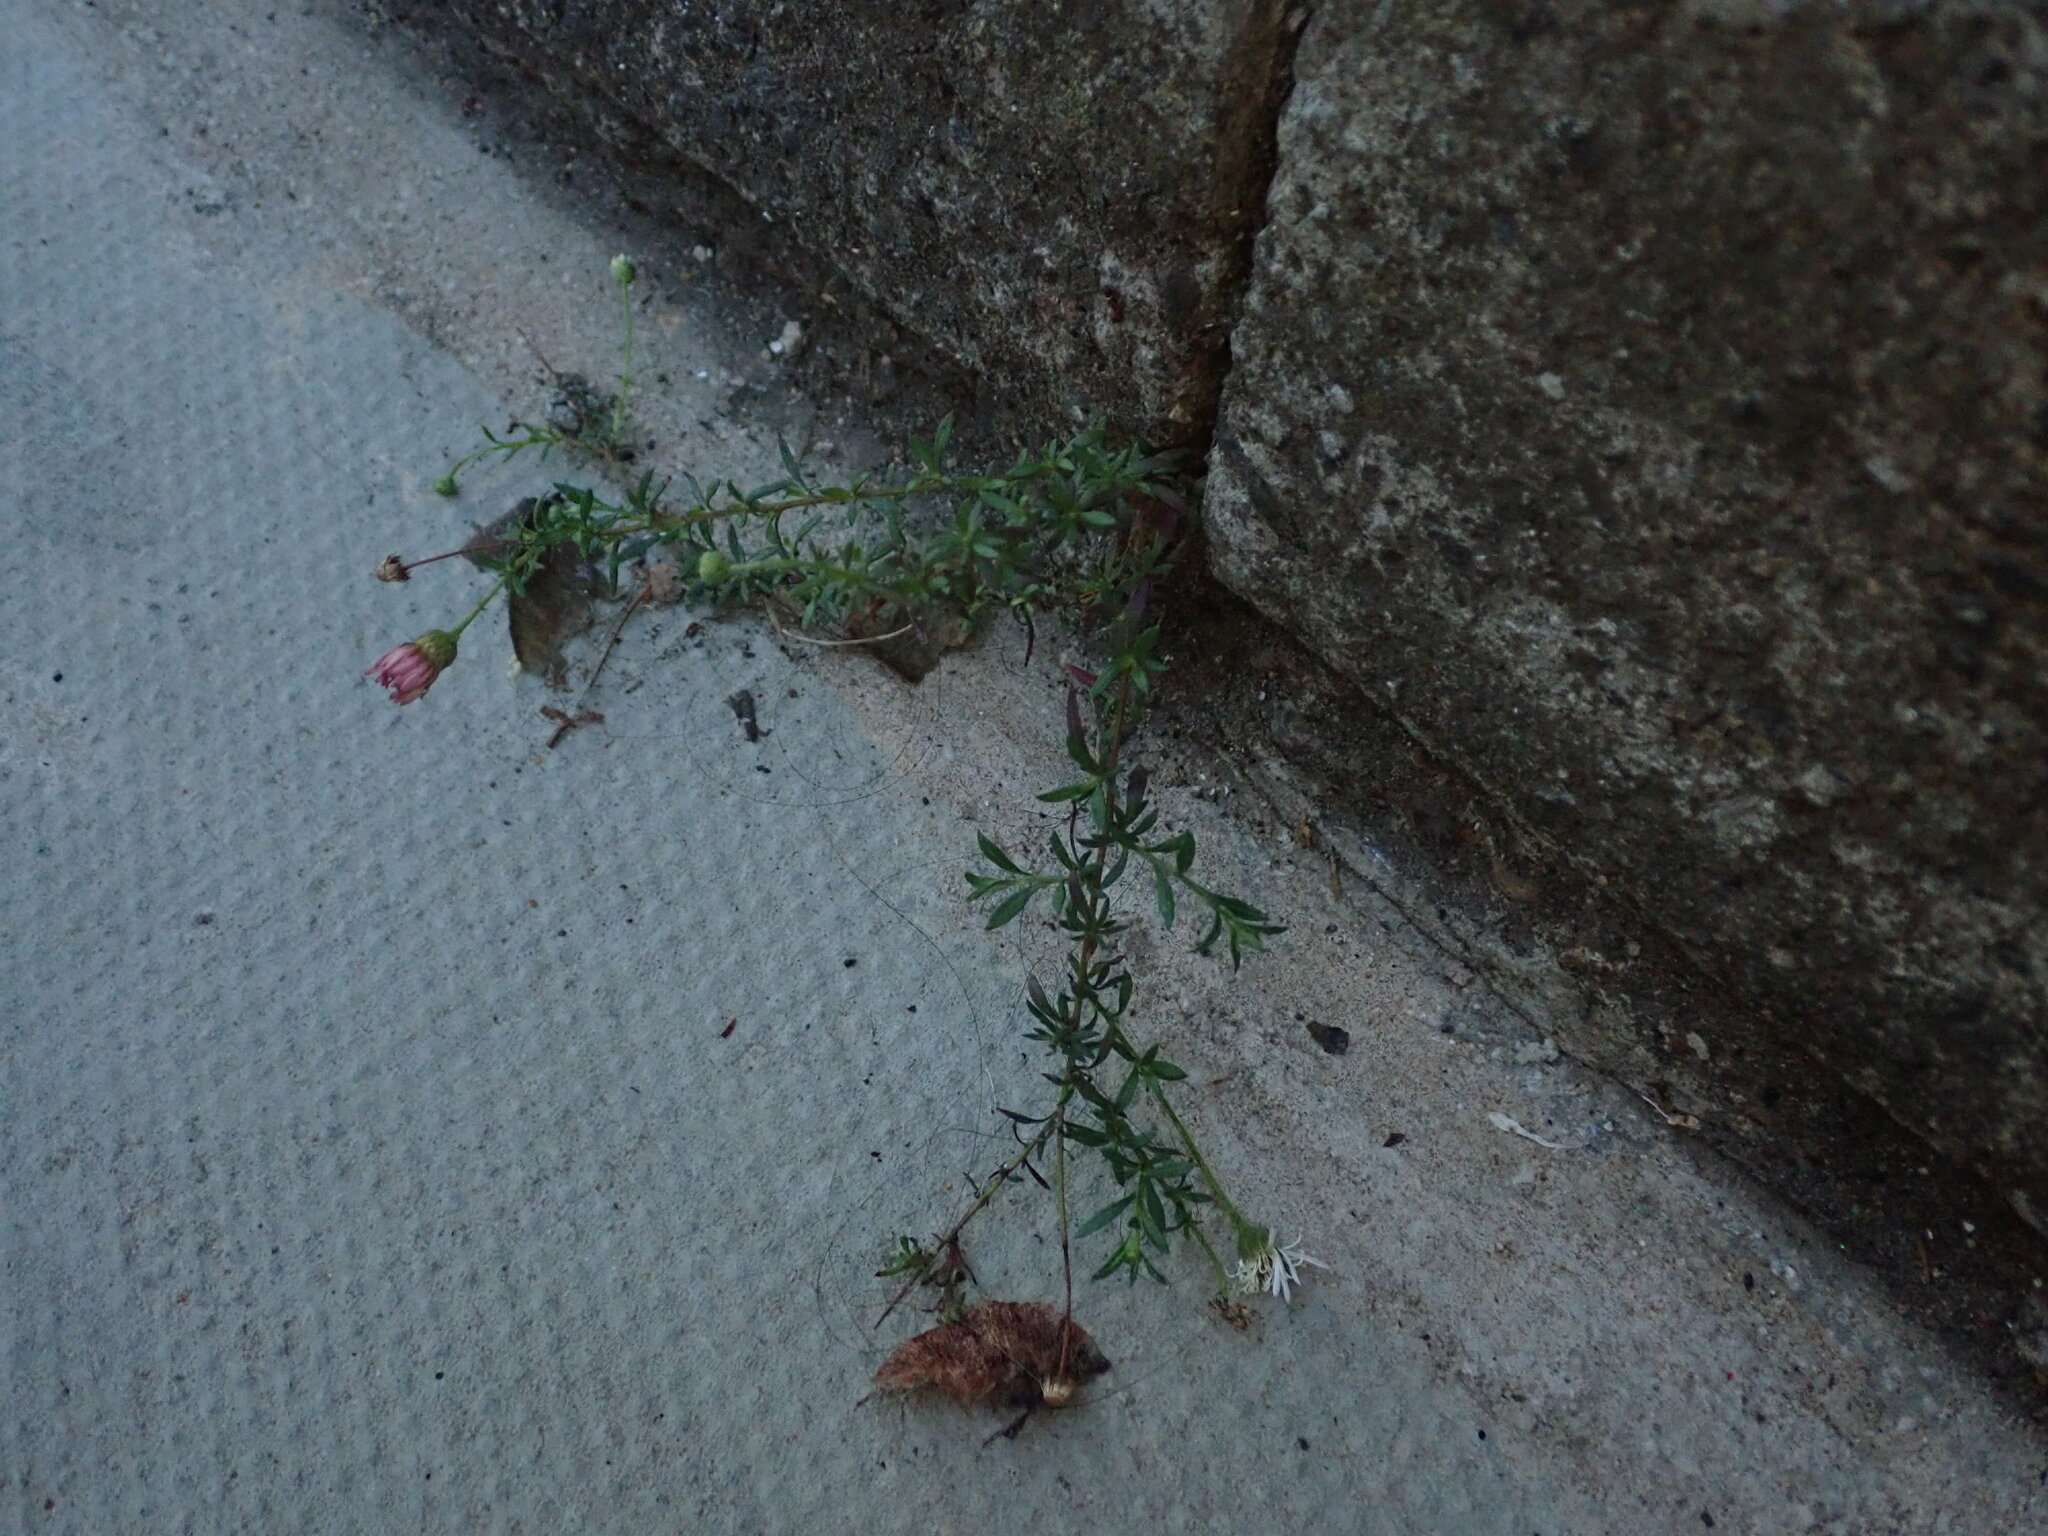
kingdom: Plantae
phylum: Tracheophyta
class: Magnoliopsida
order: Asterales
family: Asteraceae
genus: Erigeron
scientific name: Erigeron karvinskianus
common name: Mexican fleabane
